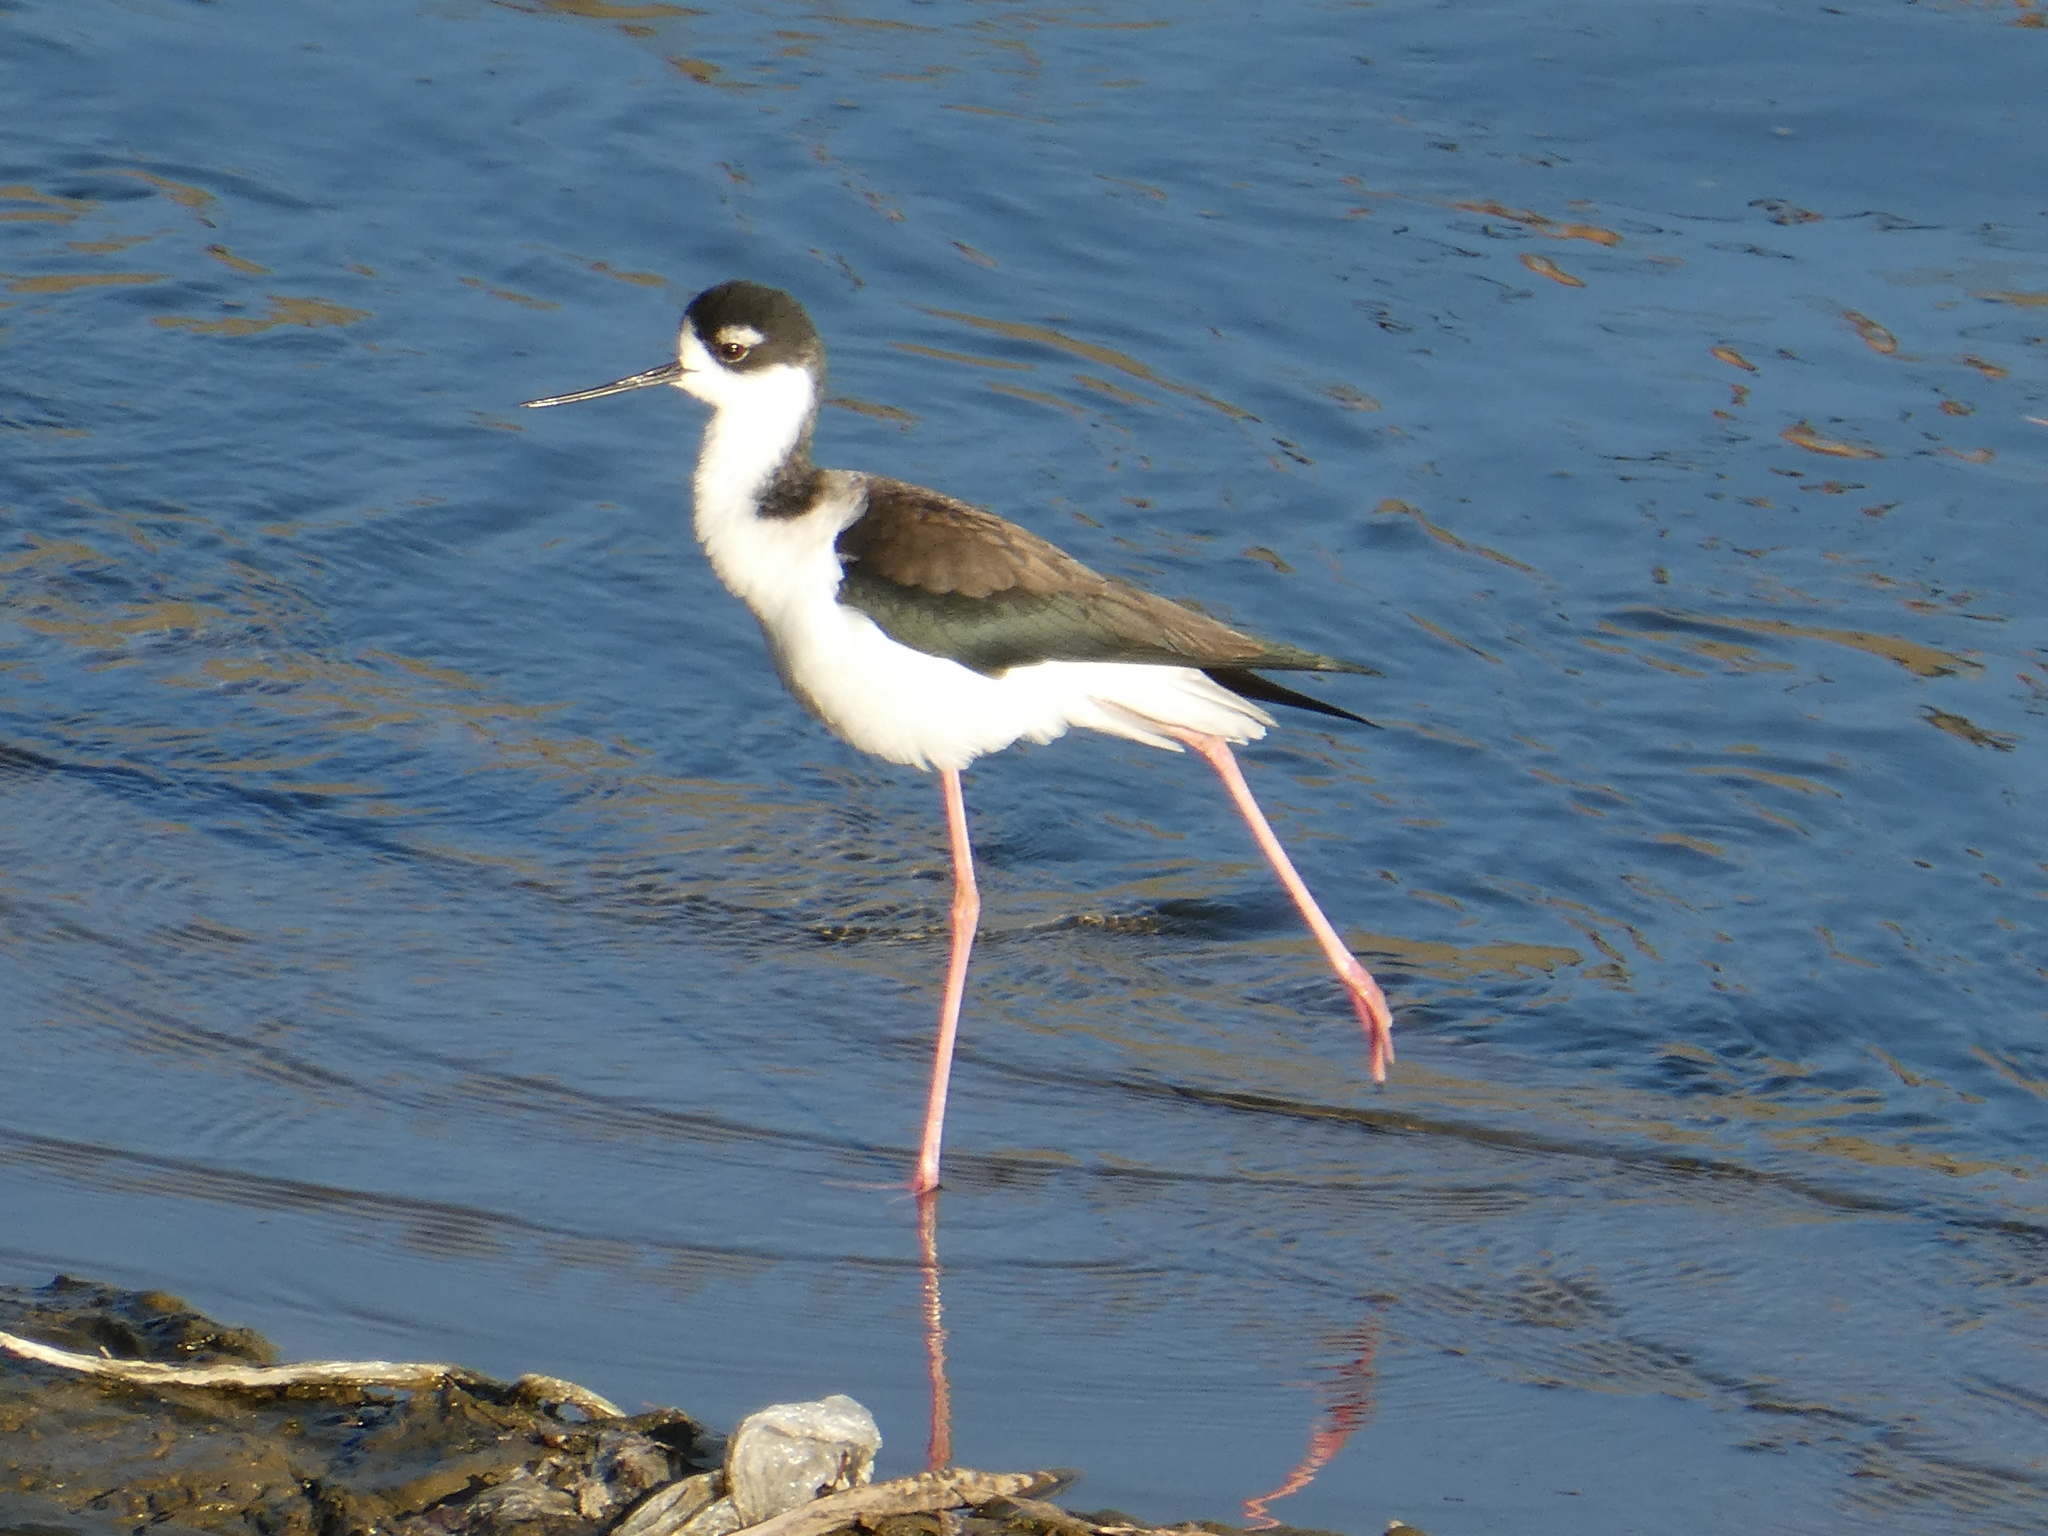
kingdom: Animalia
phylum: Chordata
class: Aves
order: Charadriiformes
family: Recurvirostridae
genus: Himantopus
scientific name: Himantopus mexicanus
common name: Black-necked stilt
